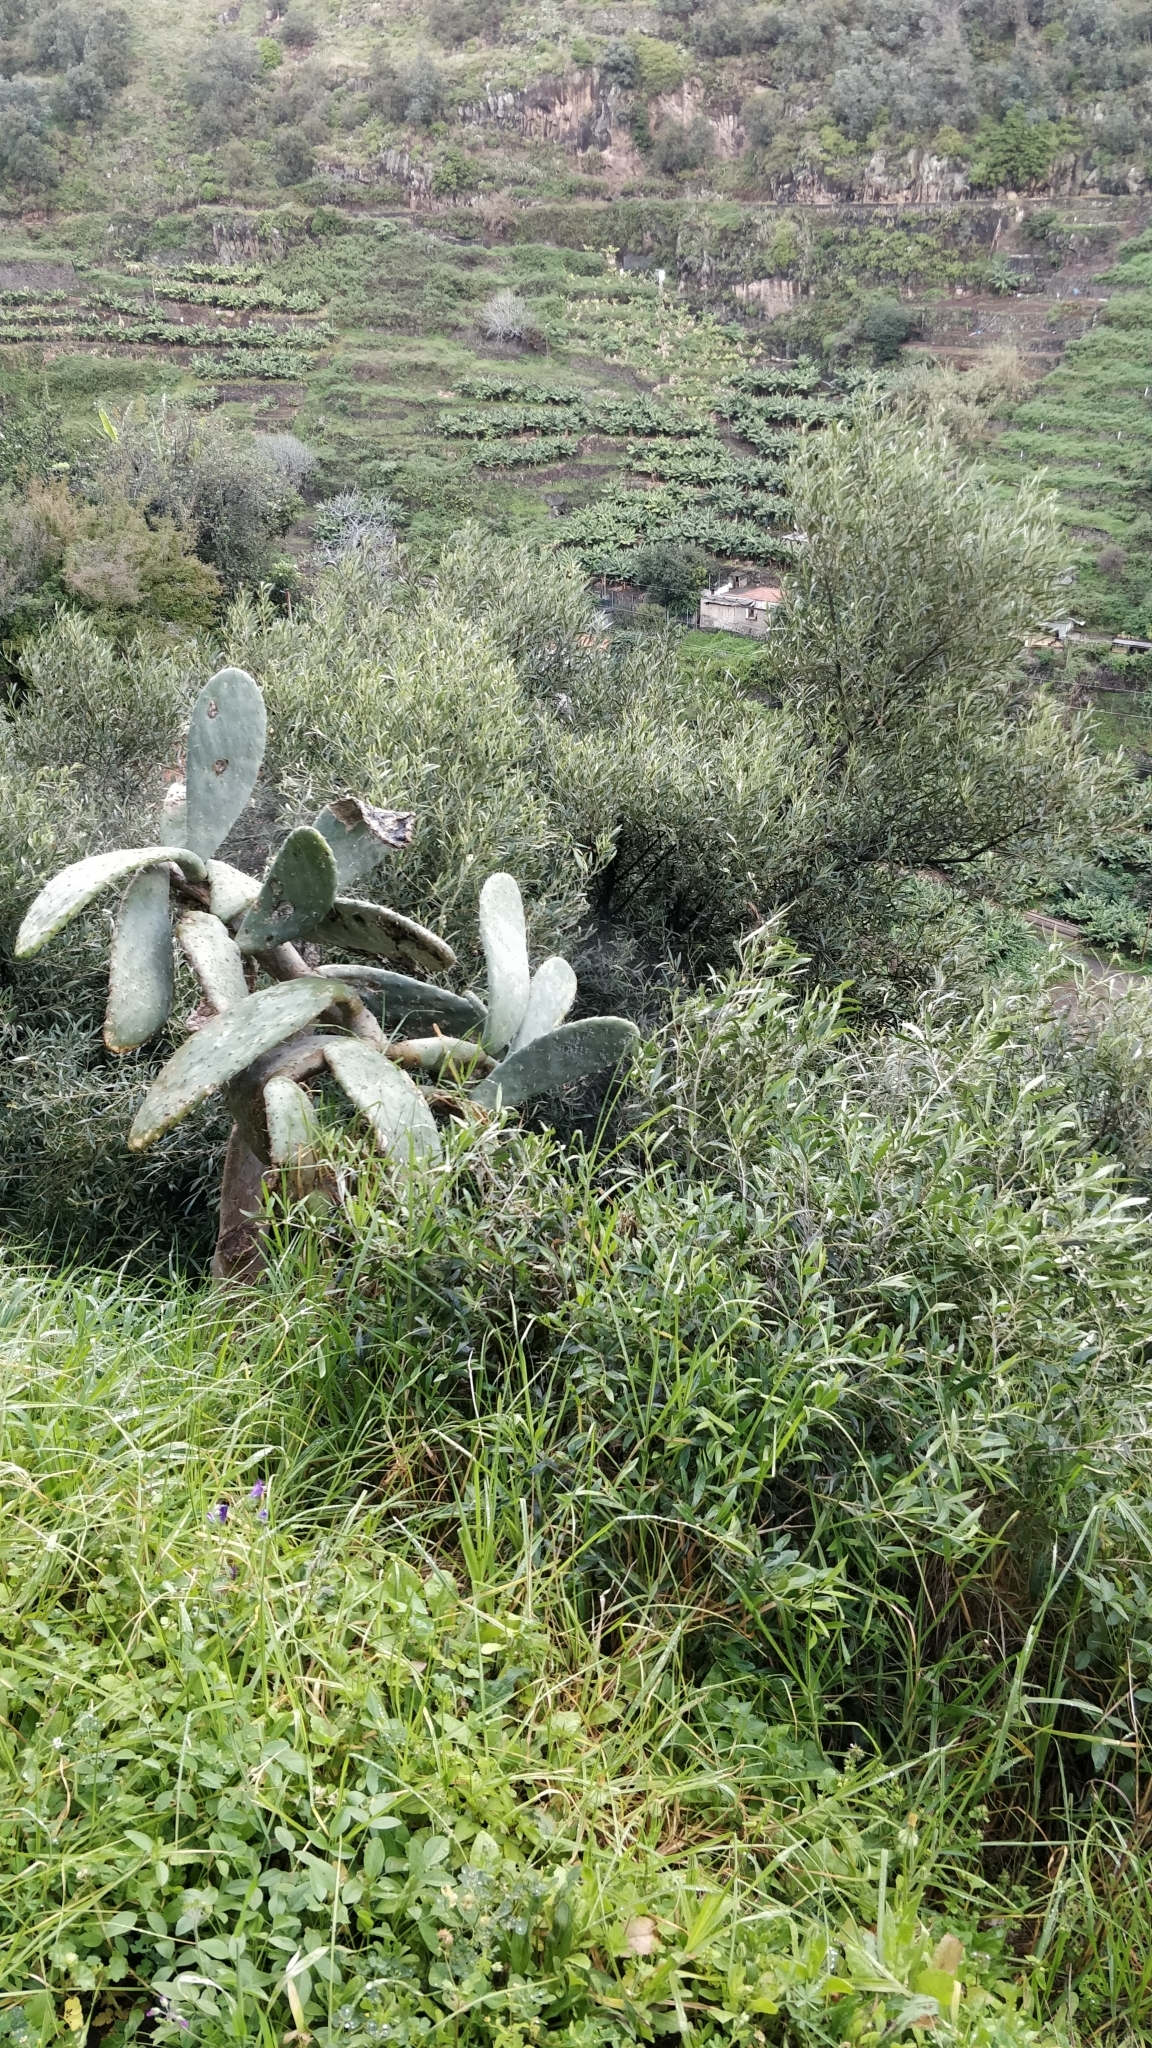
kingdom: Plantae
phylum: Tracheophyta
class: Magnoliopsida
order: Lamiales
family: Oleaceae
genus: Olea
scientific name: Olea europaea
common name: Olive
